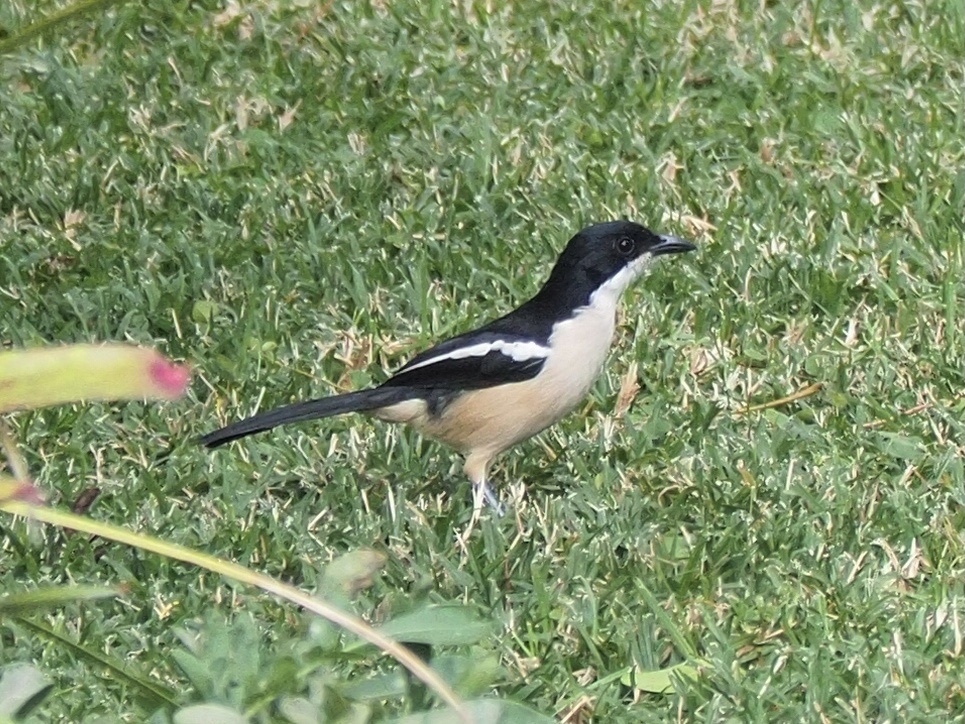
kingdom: Animalia
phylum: Chordata
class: Aves
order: Passeriformes
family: Malaconotidae
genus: Laniarius
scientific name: Laniarius major
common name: Tropical boubou
